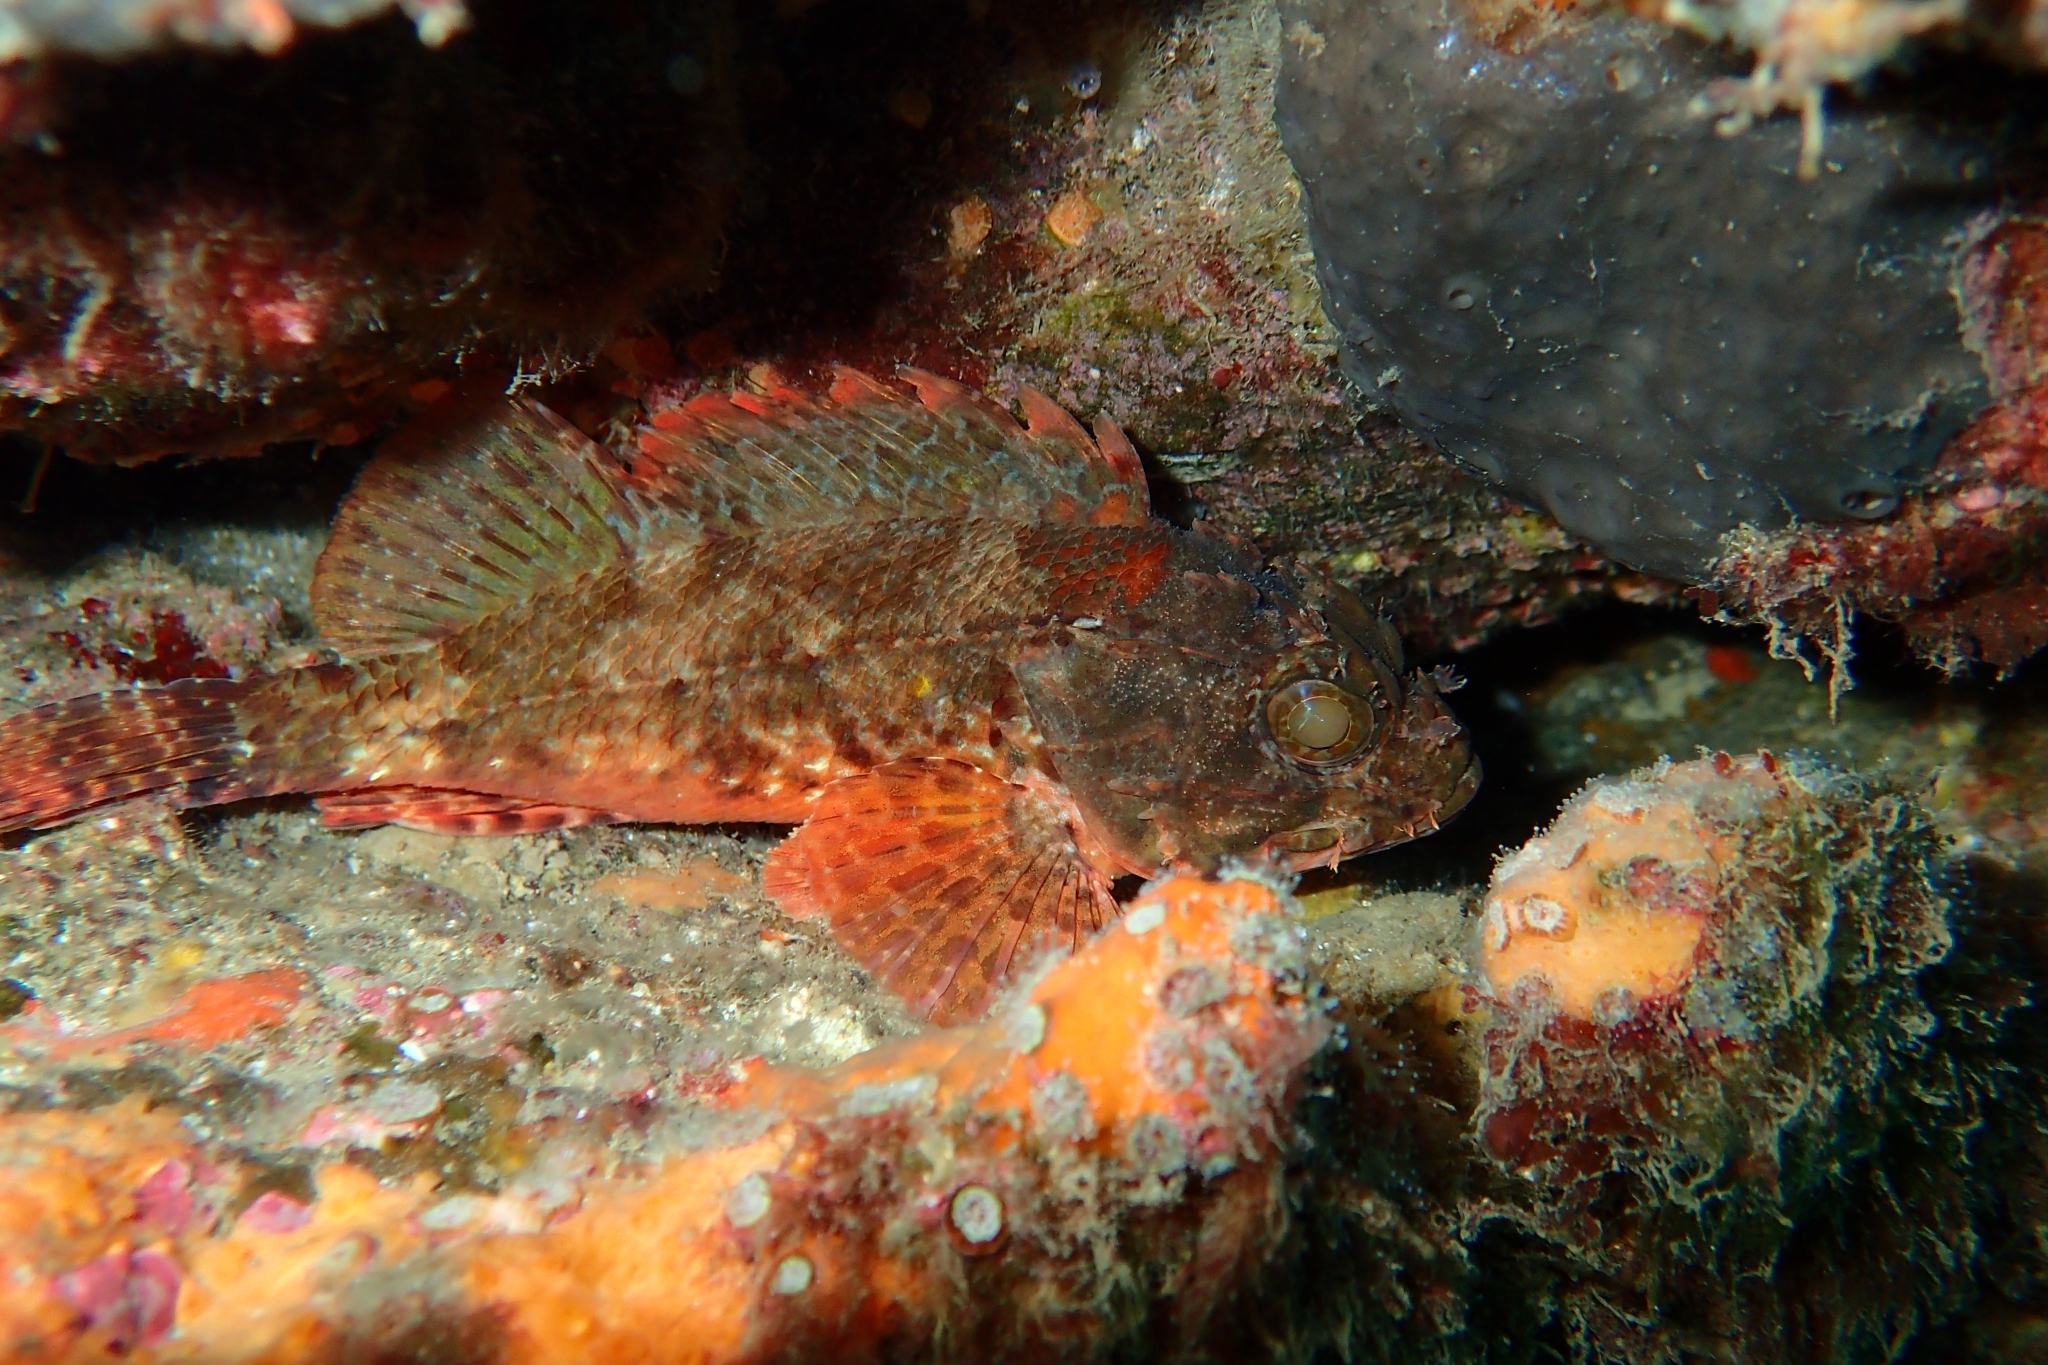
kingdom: Animalia
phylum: Chordata
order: Scorpaeniformes
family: Scorpaenidae
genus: Scorpaena
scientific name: Scorpaena papillosa
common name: Chained scorpionfish
